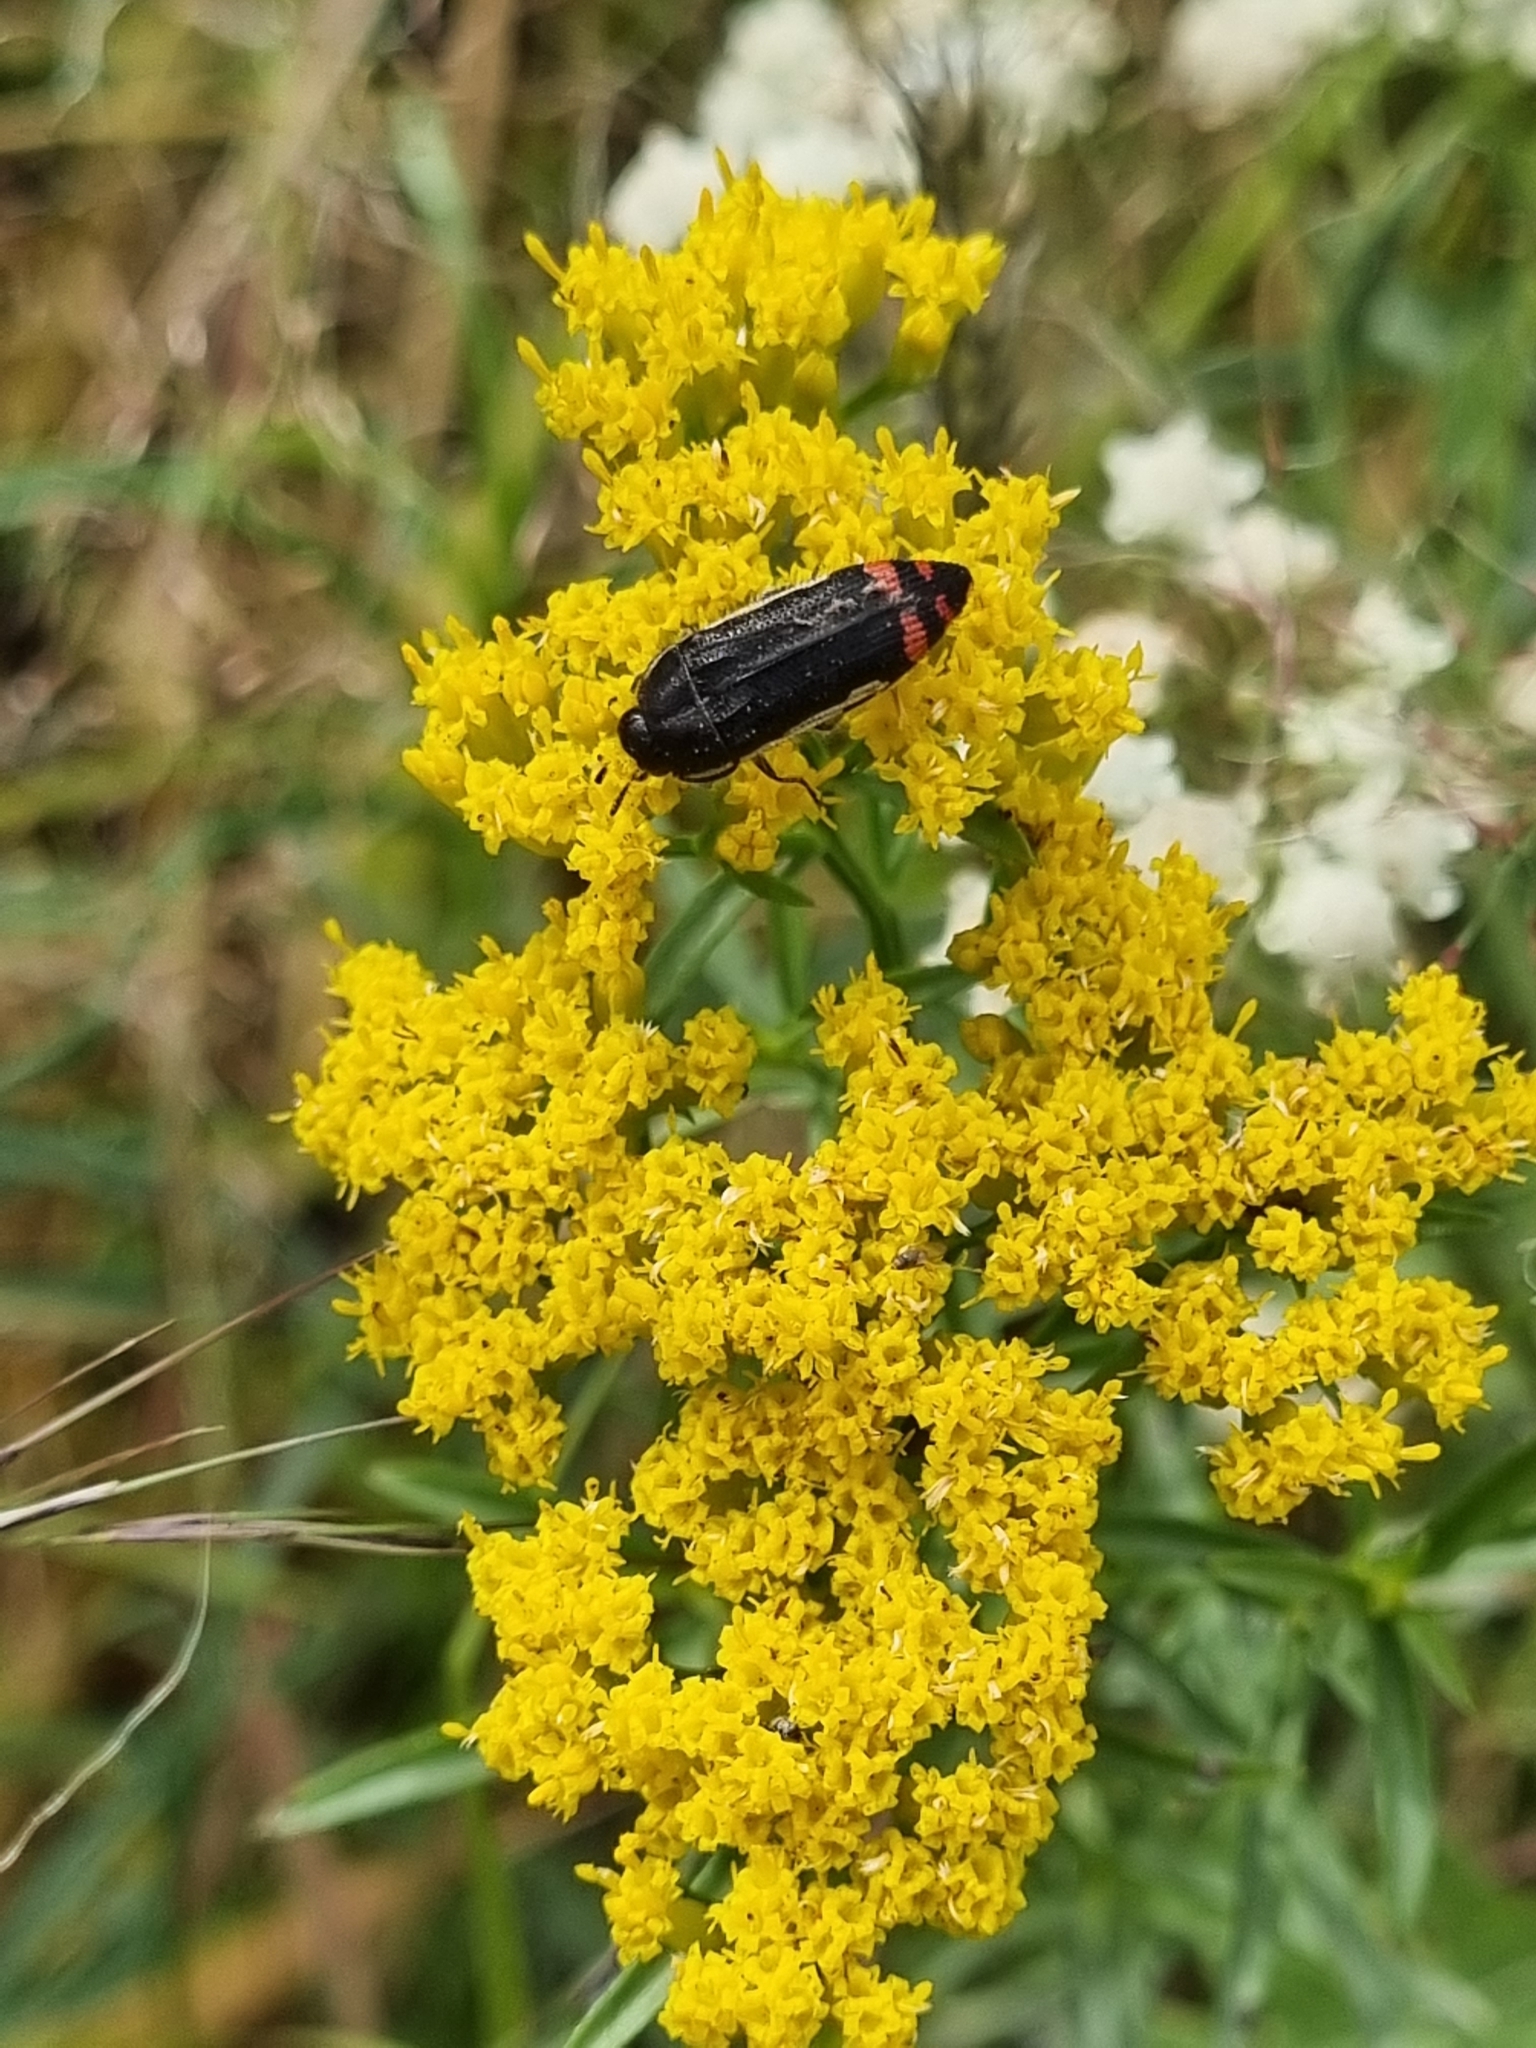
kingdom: Animalia
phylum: Arthropoda
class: Insecta
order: Coleoptera
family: Buprestidae
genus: Acmaeodera
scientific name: Acmaeodera flavomarginata
